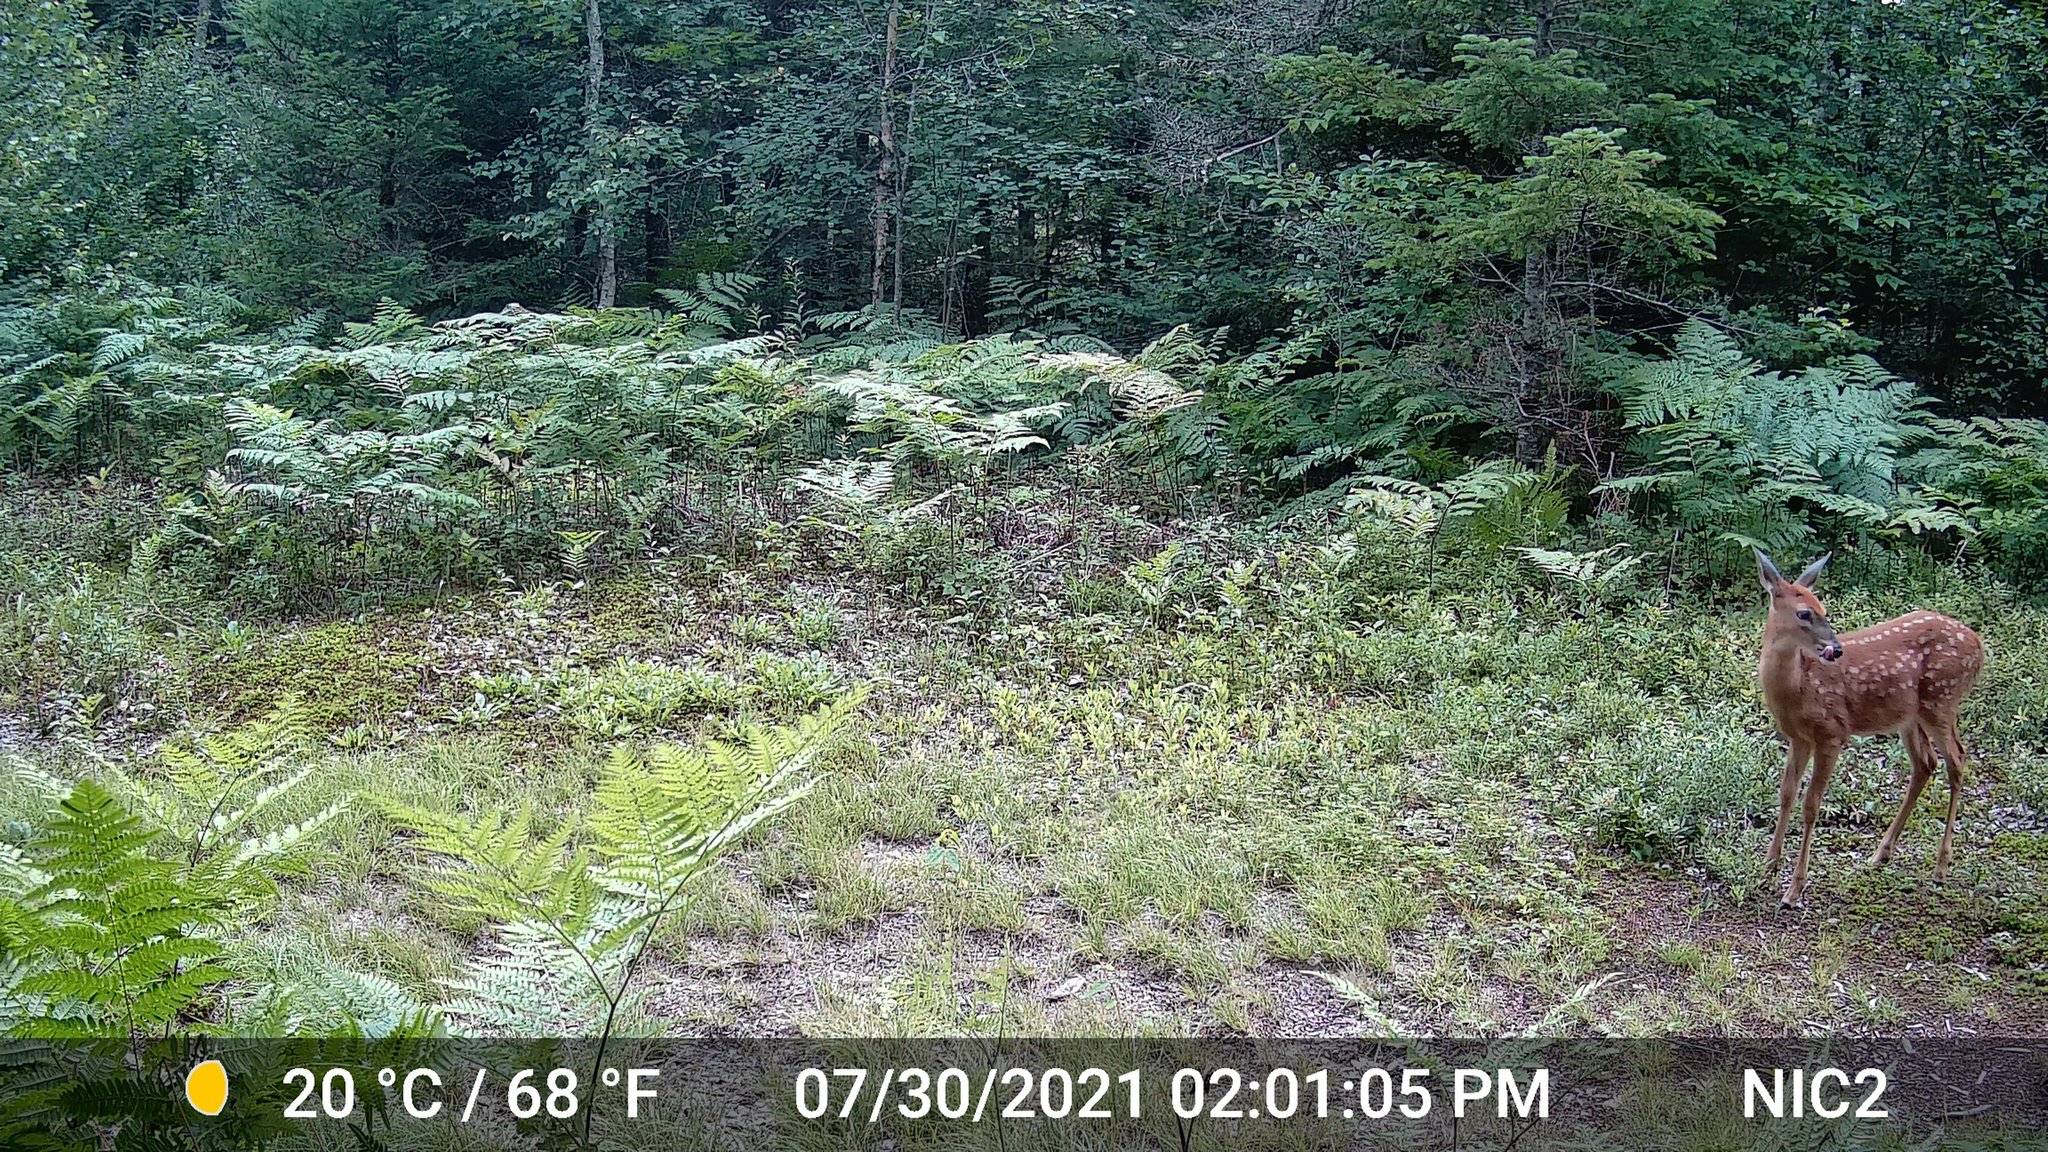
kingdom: Animalia
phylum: Chordata
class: Mammalia
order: Artiodactyla
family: Cervidae
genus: Odocoileus
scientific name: Odocoileus virginianus
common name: White-tailed deer
